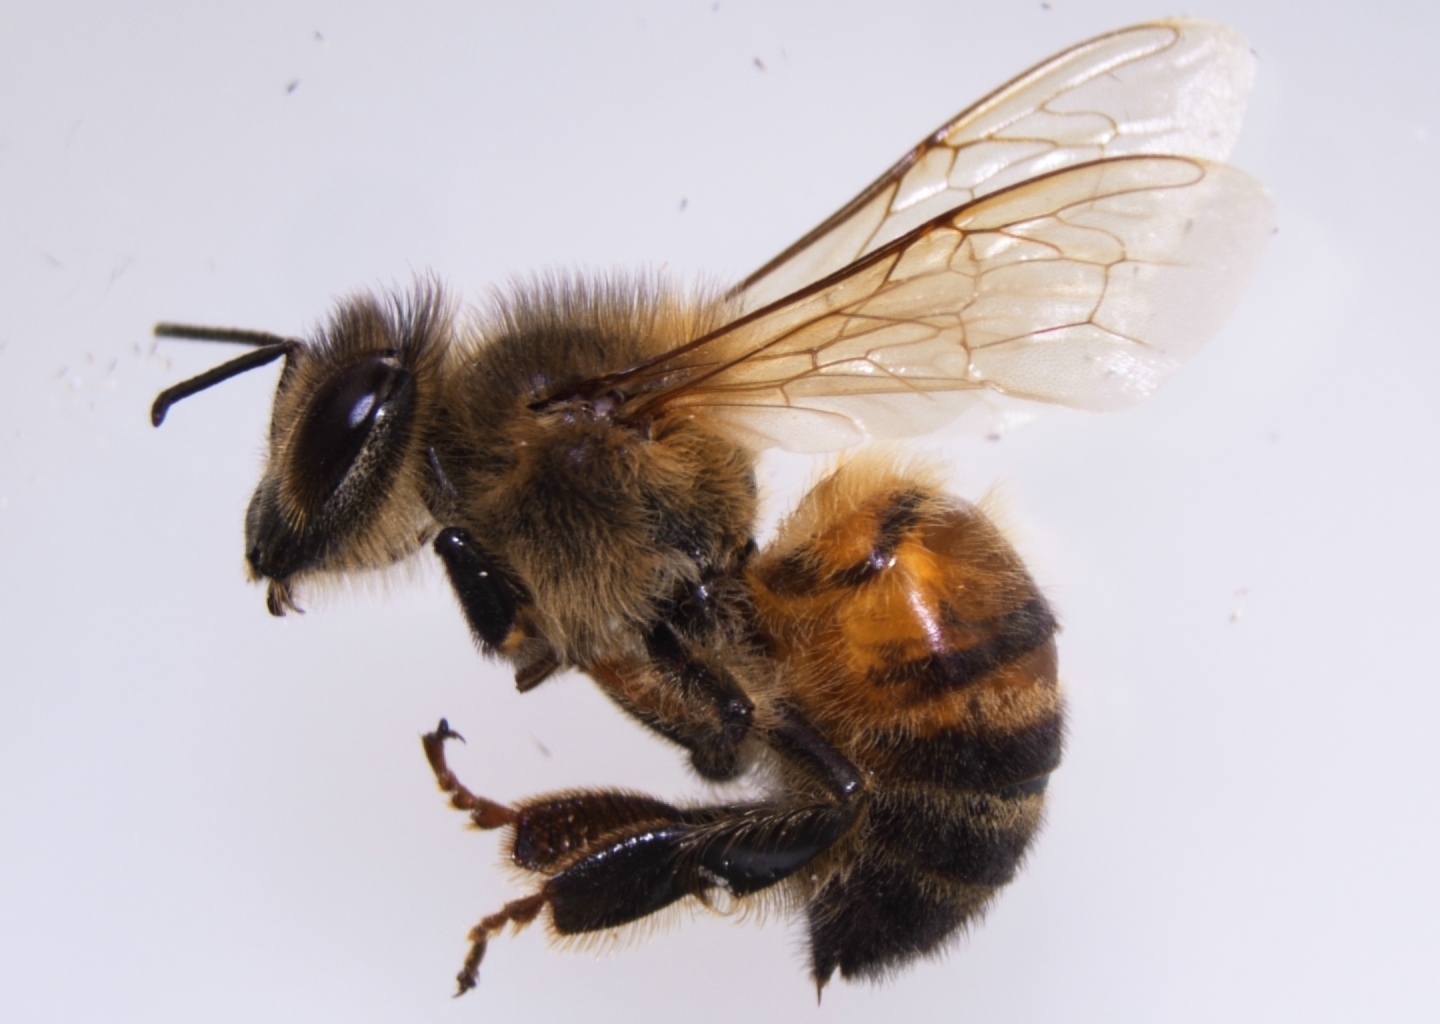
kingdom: Animalia
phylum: Arthropoda
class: Insecta
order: Hymenoptera
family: Apidae
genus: Apis
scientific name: Apis mellifera
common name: Honey bee
